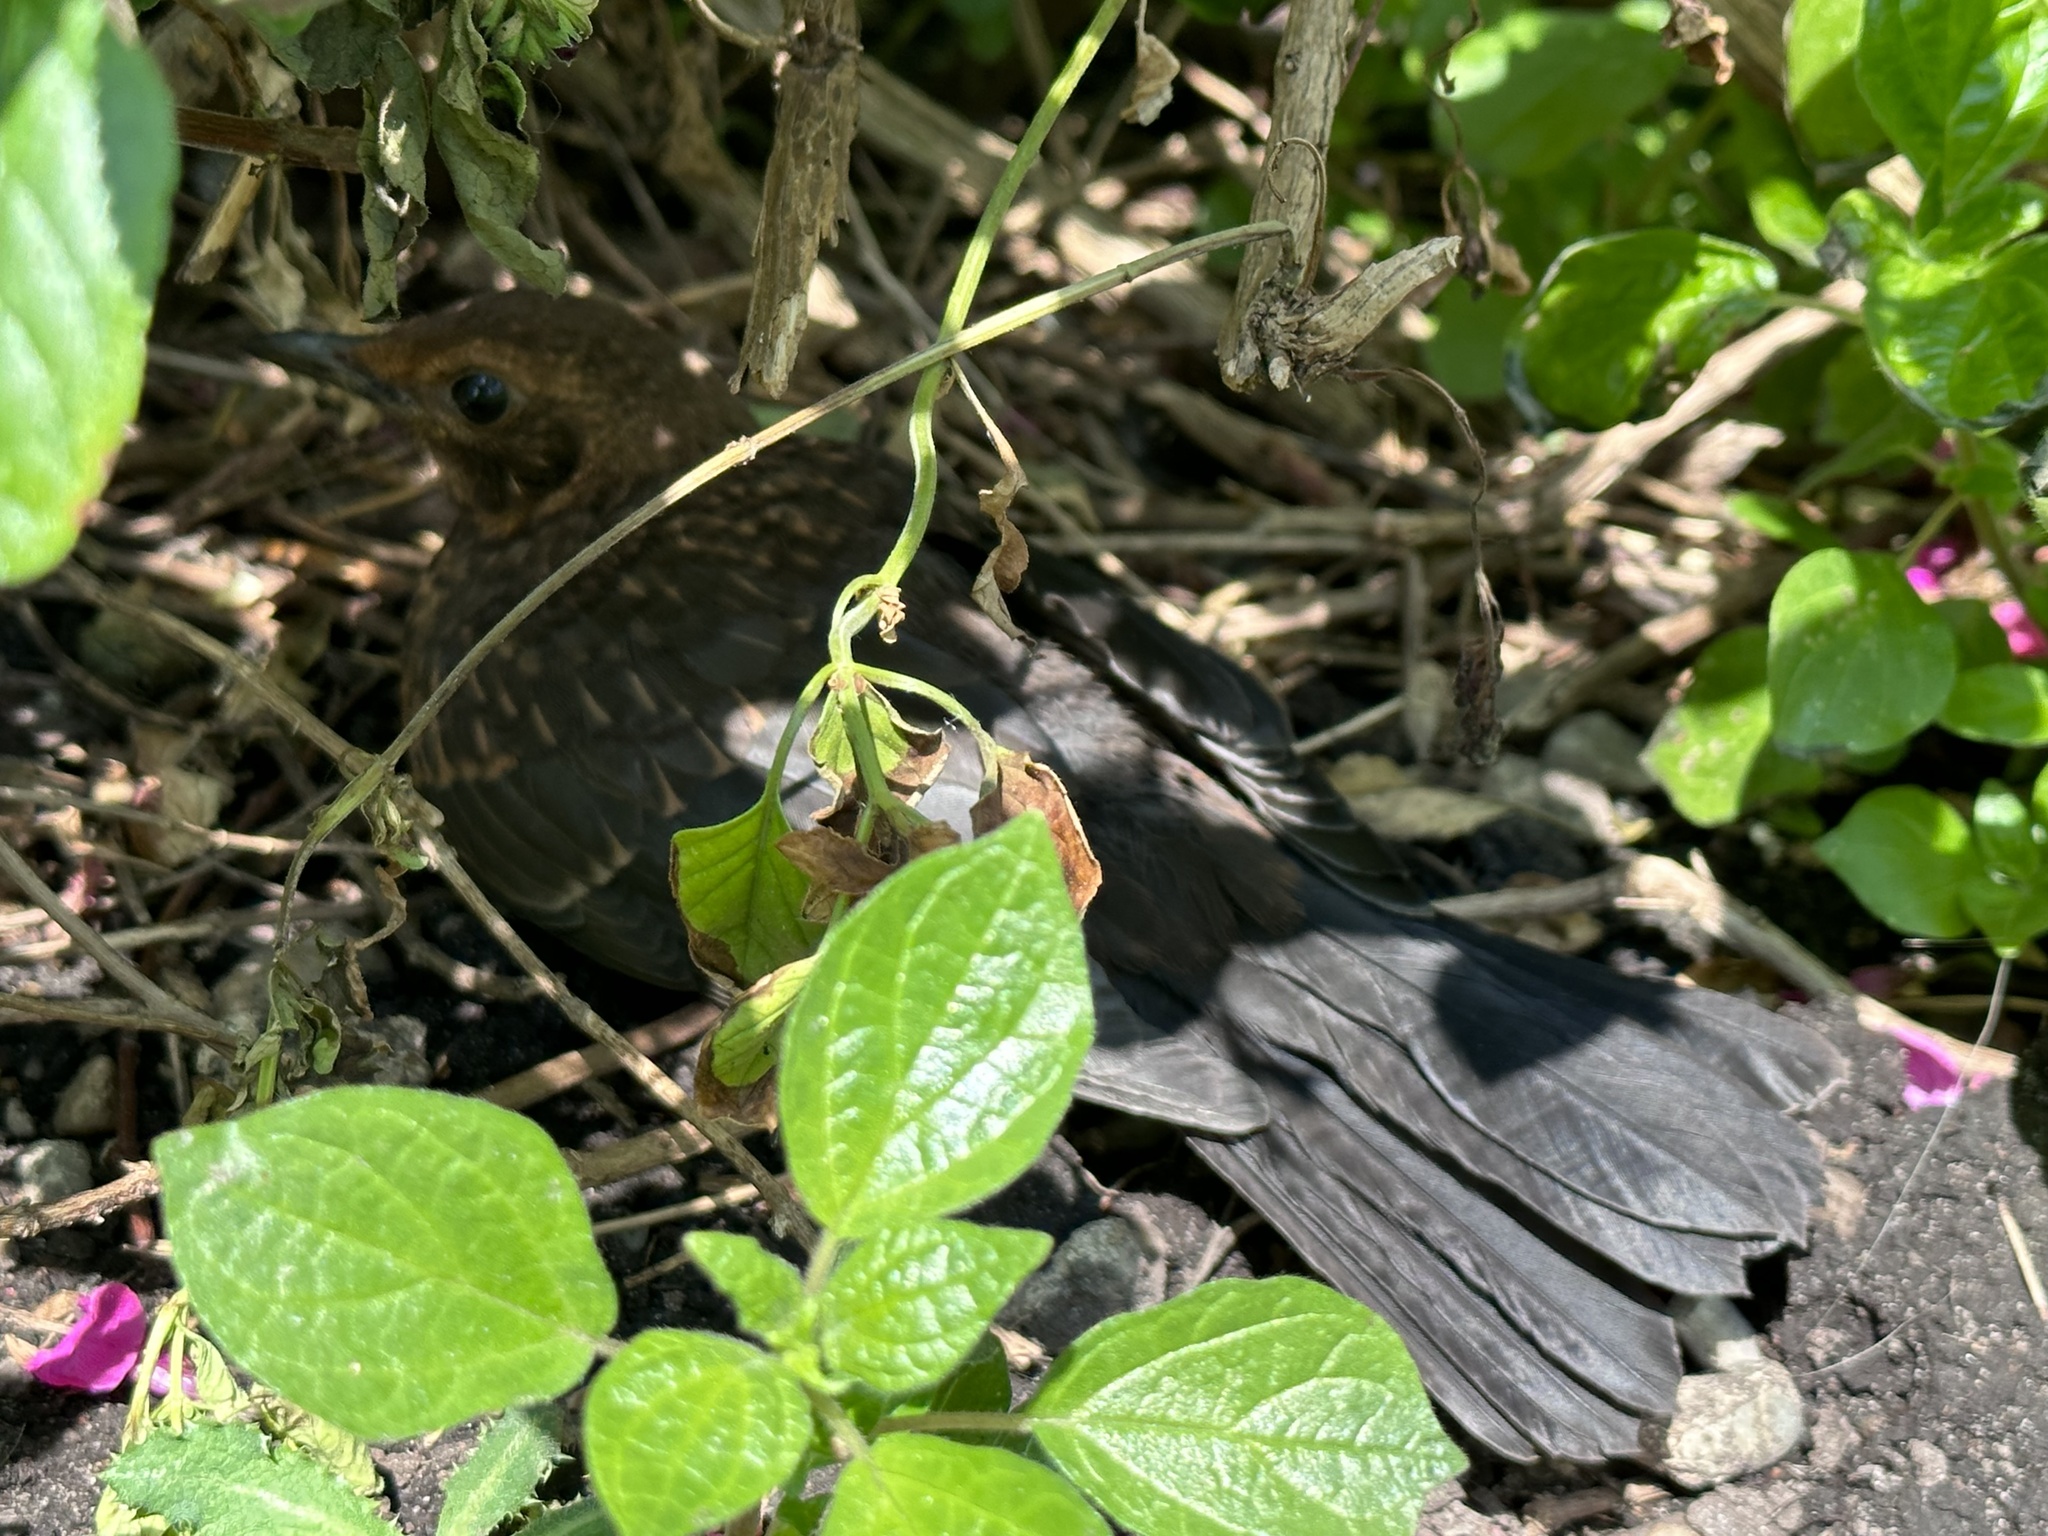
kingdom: Animalia
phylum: Chordata
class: Aves
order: Passeriformes
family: Turdidae
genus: Turdus
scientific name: Turdus merula
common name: Common blackbird
